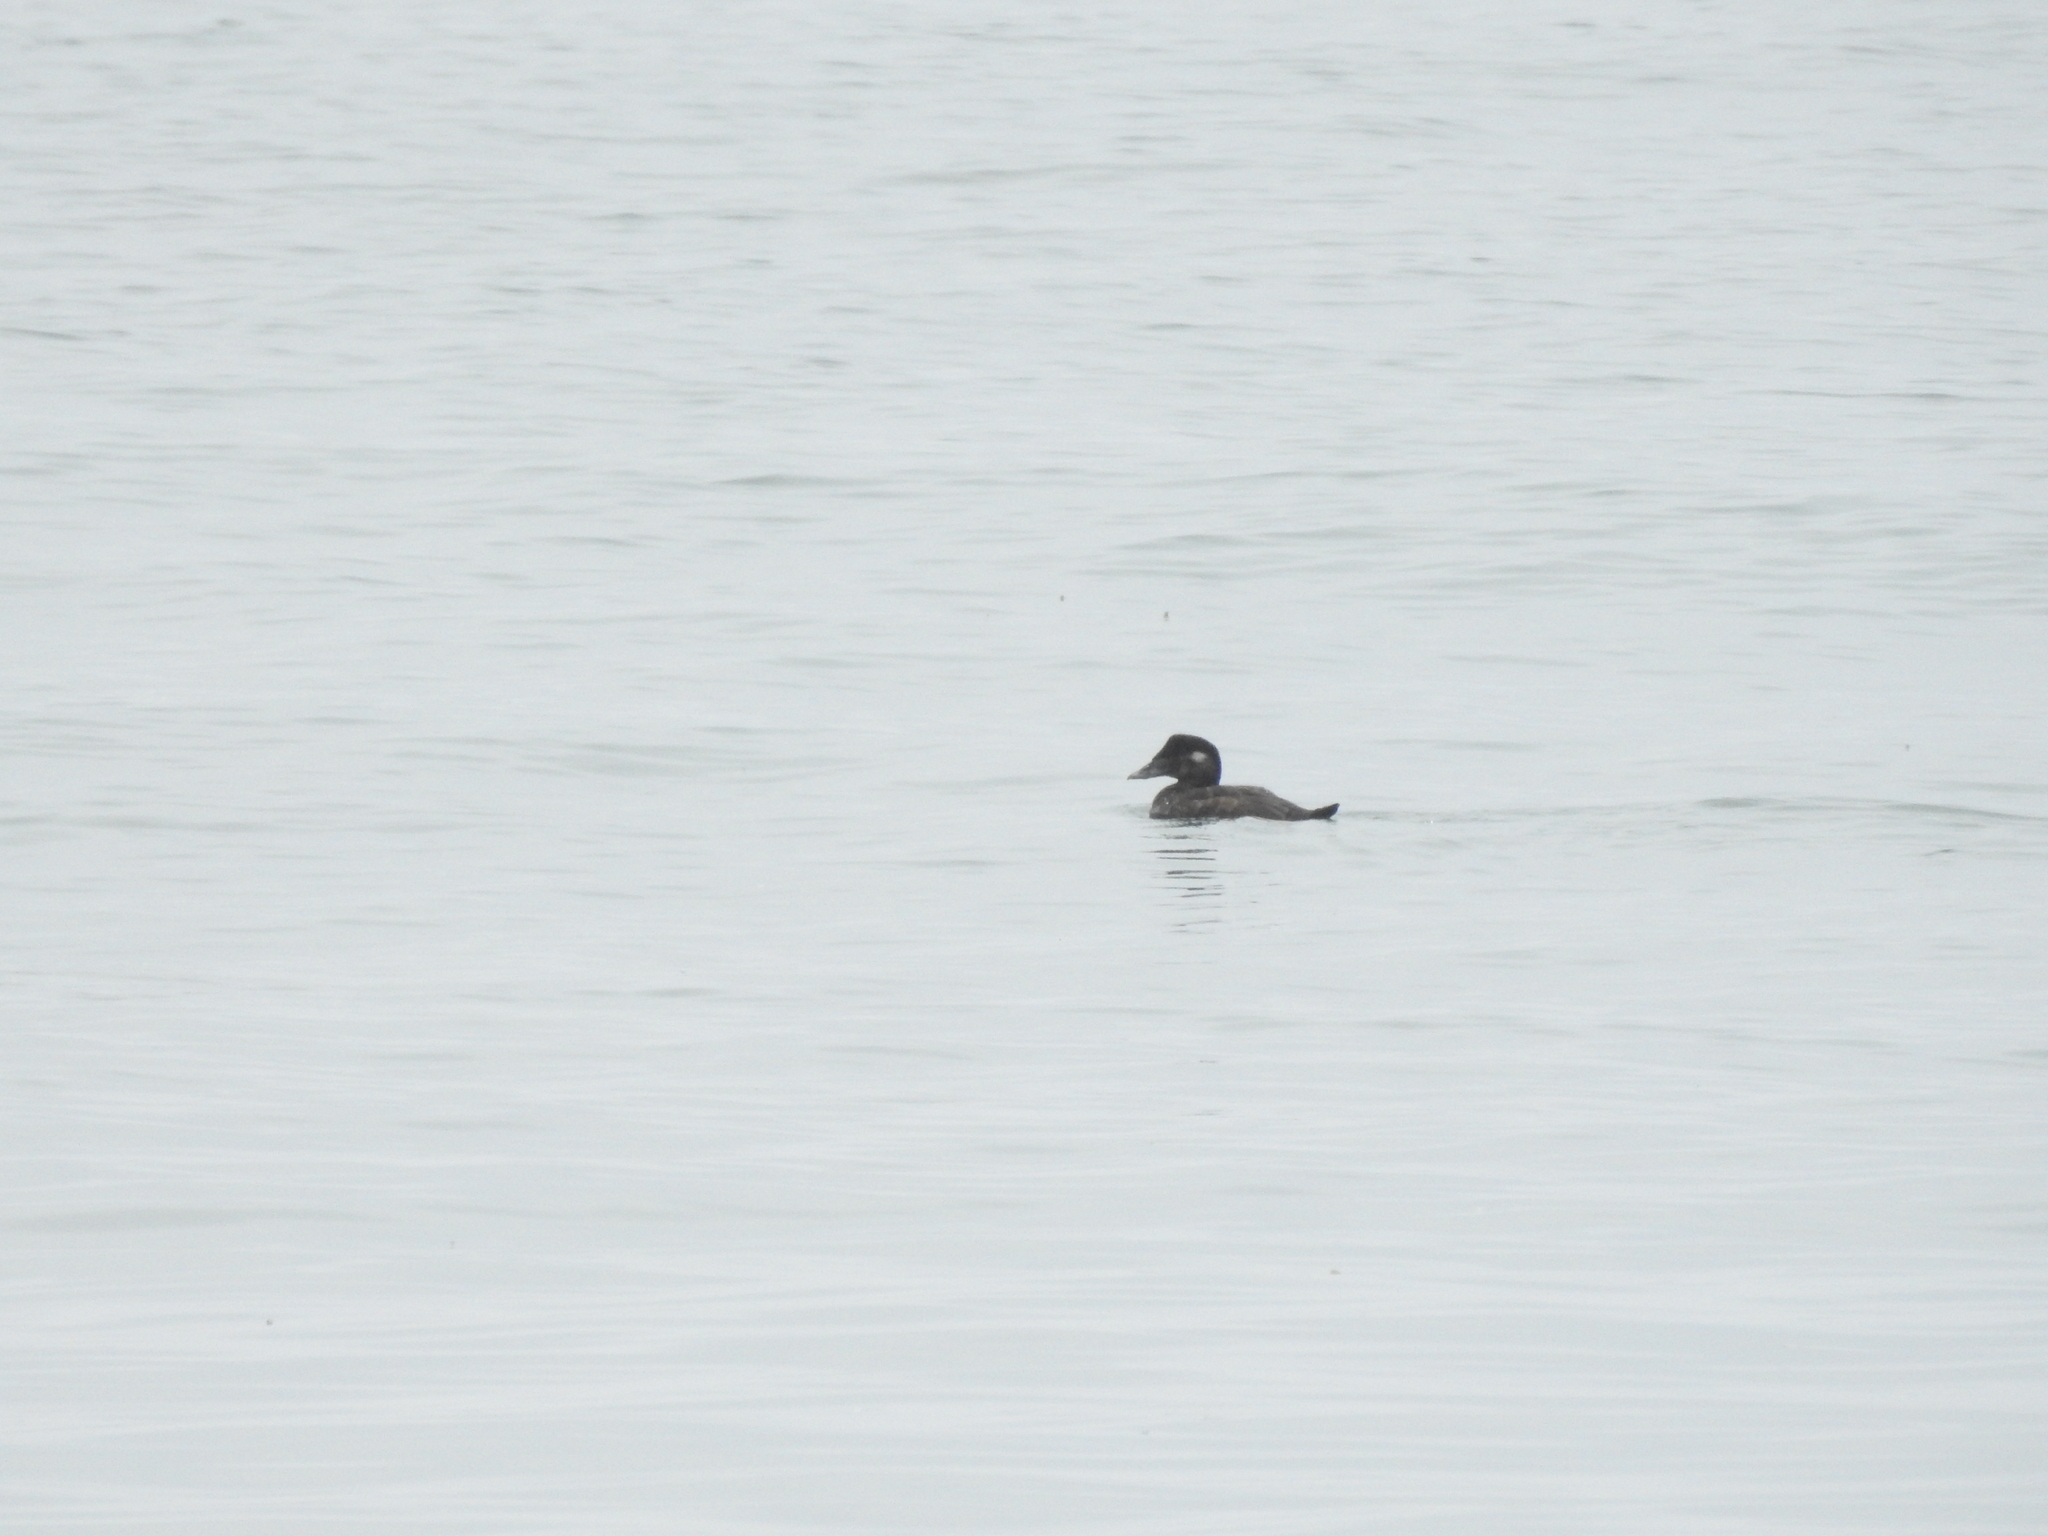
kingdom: Animalia
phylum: Chordata
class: Aves
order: Anseriformes
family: Anatidae
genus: Melanitta
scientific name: Melanitta perspicillata
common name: Surf scoter
